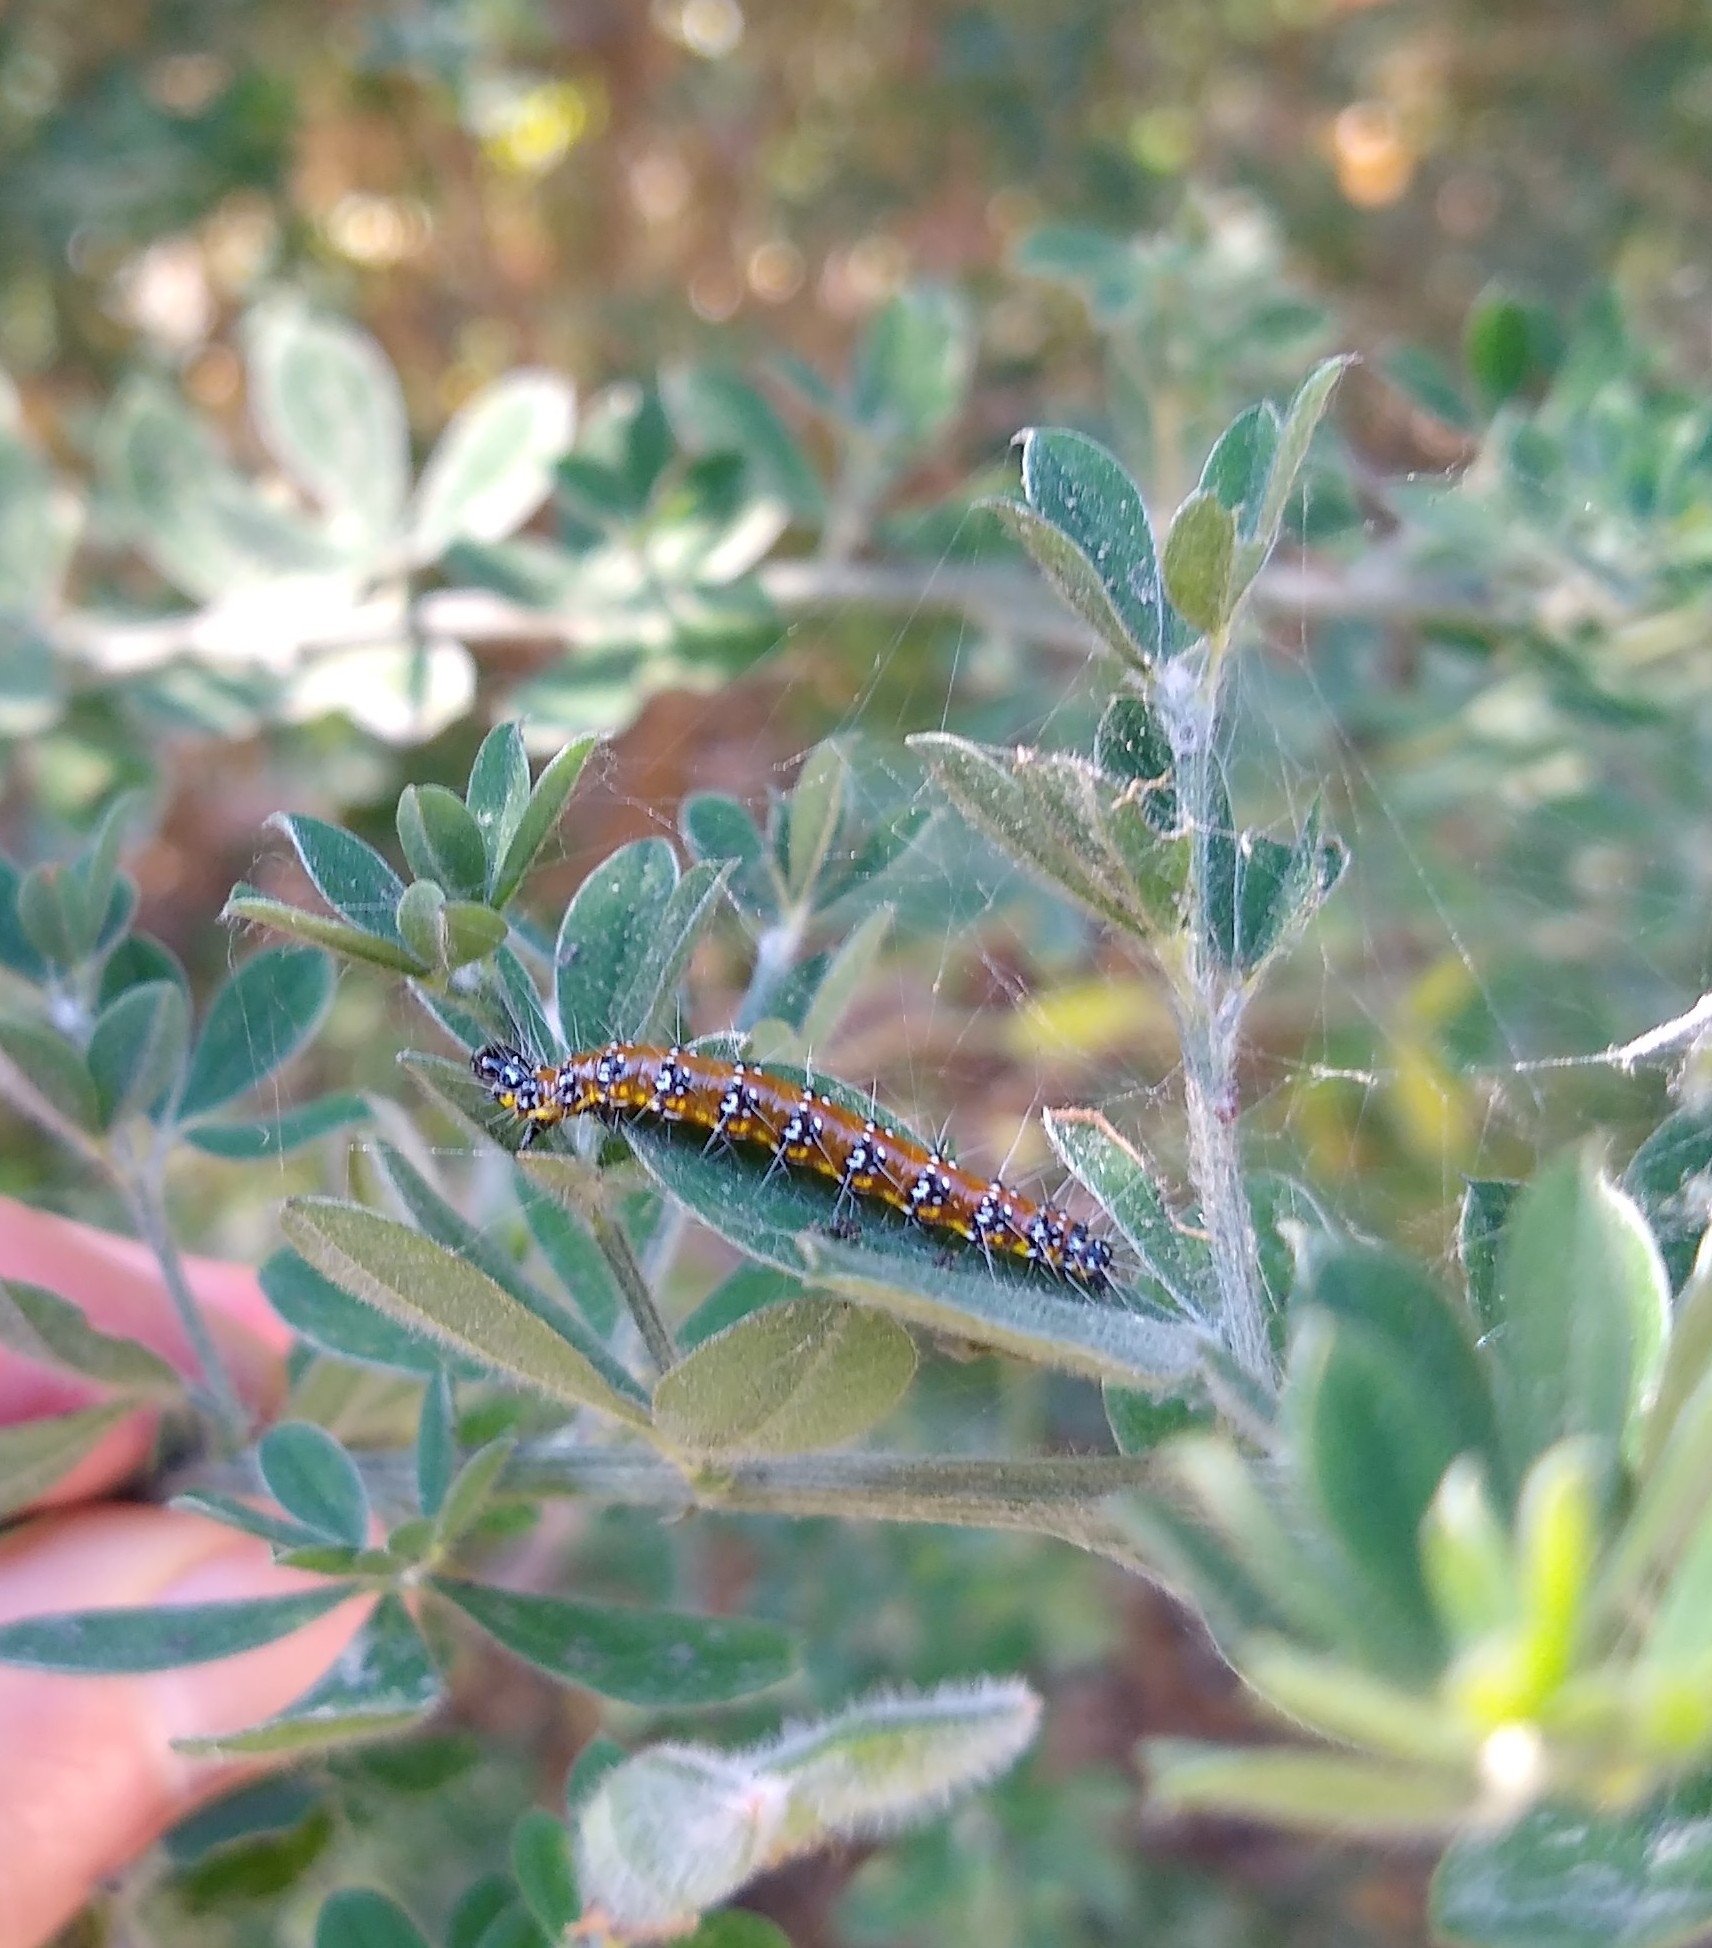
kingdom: Animalia
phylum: Arthropoda
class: Insecta
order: Lepidoptera
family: Crambidae
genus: Uresiphita
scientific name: Uresiphita reversalis
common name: Genista broom moth
